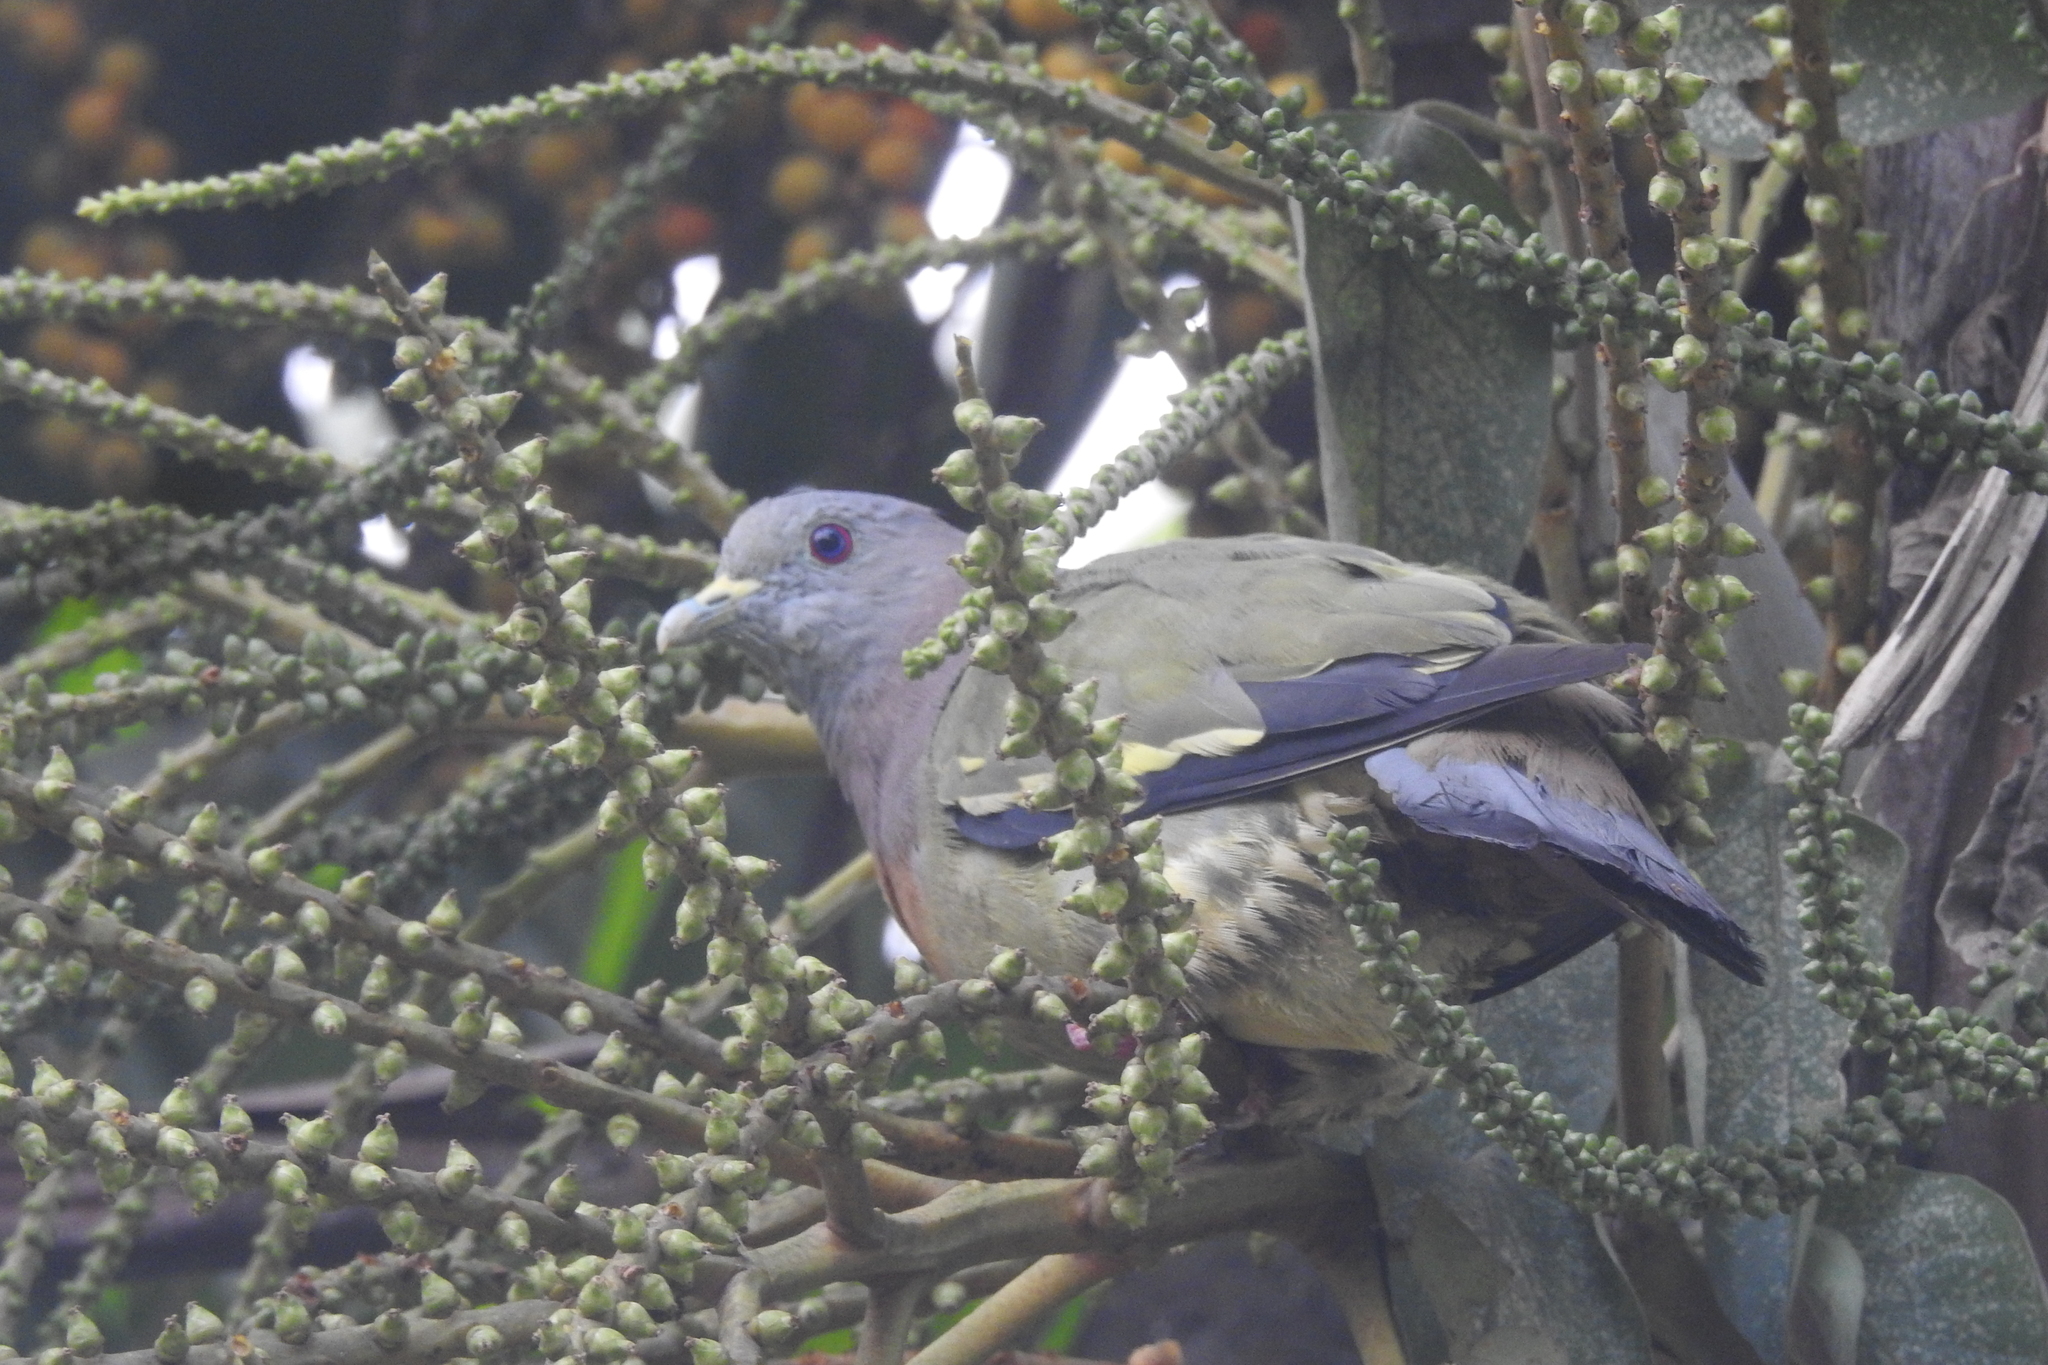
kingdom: Animalia
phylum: Chordata
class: Aves
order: Columbiformes
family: Columbidae
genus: Treron
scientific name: Treron vernans
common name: Pink-necked green pigeon
